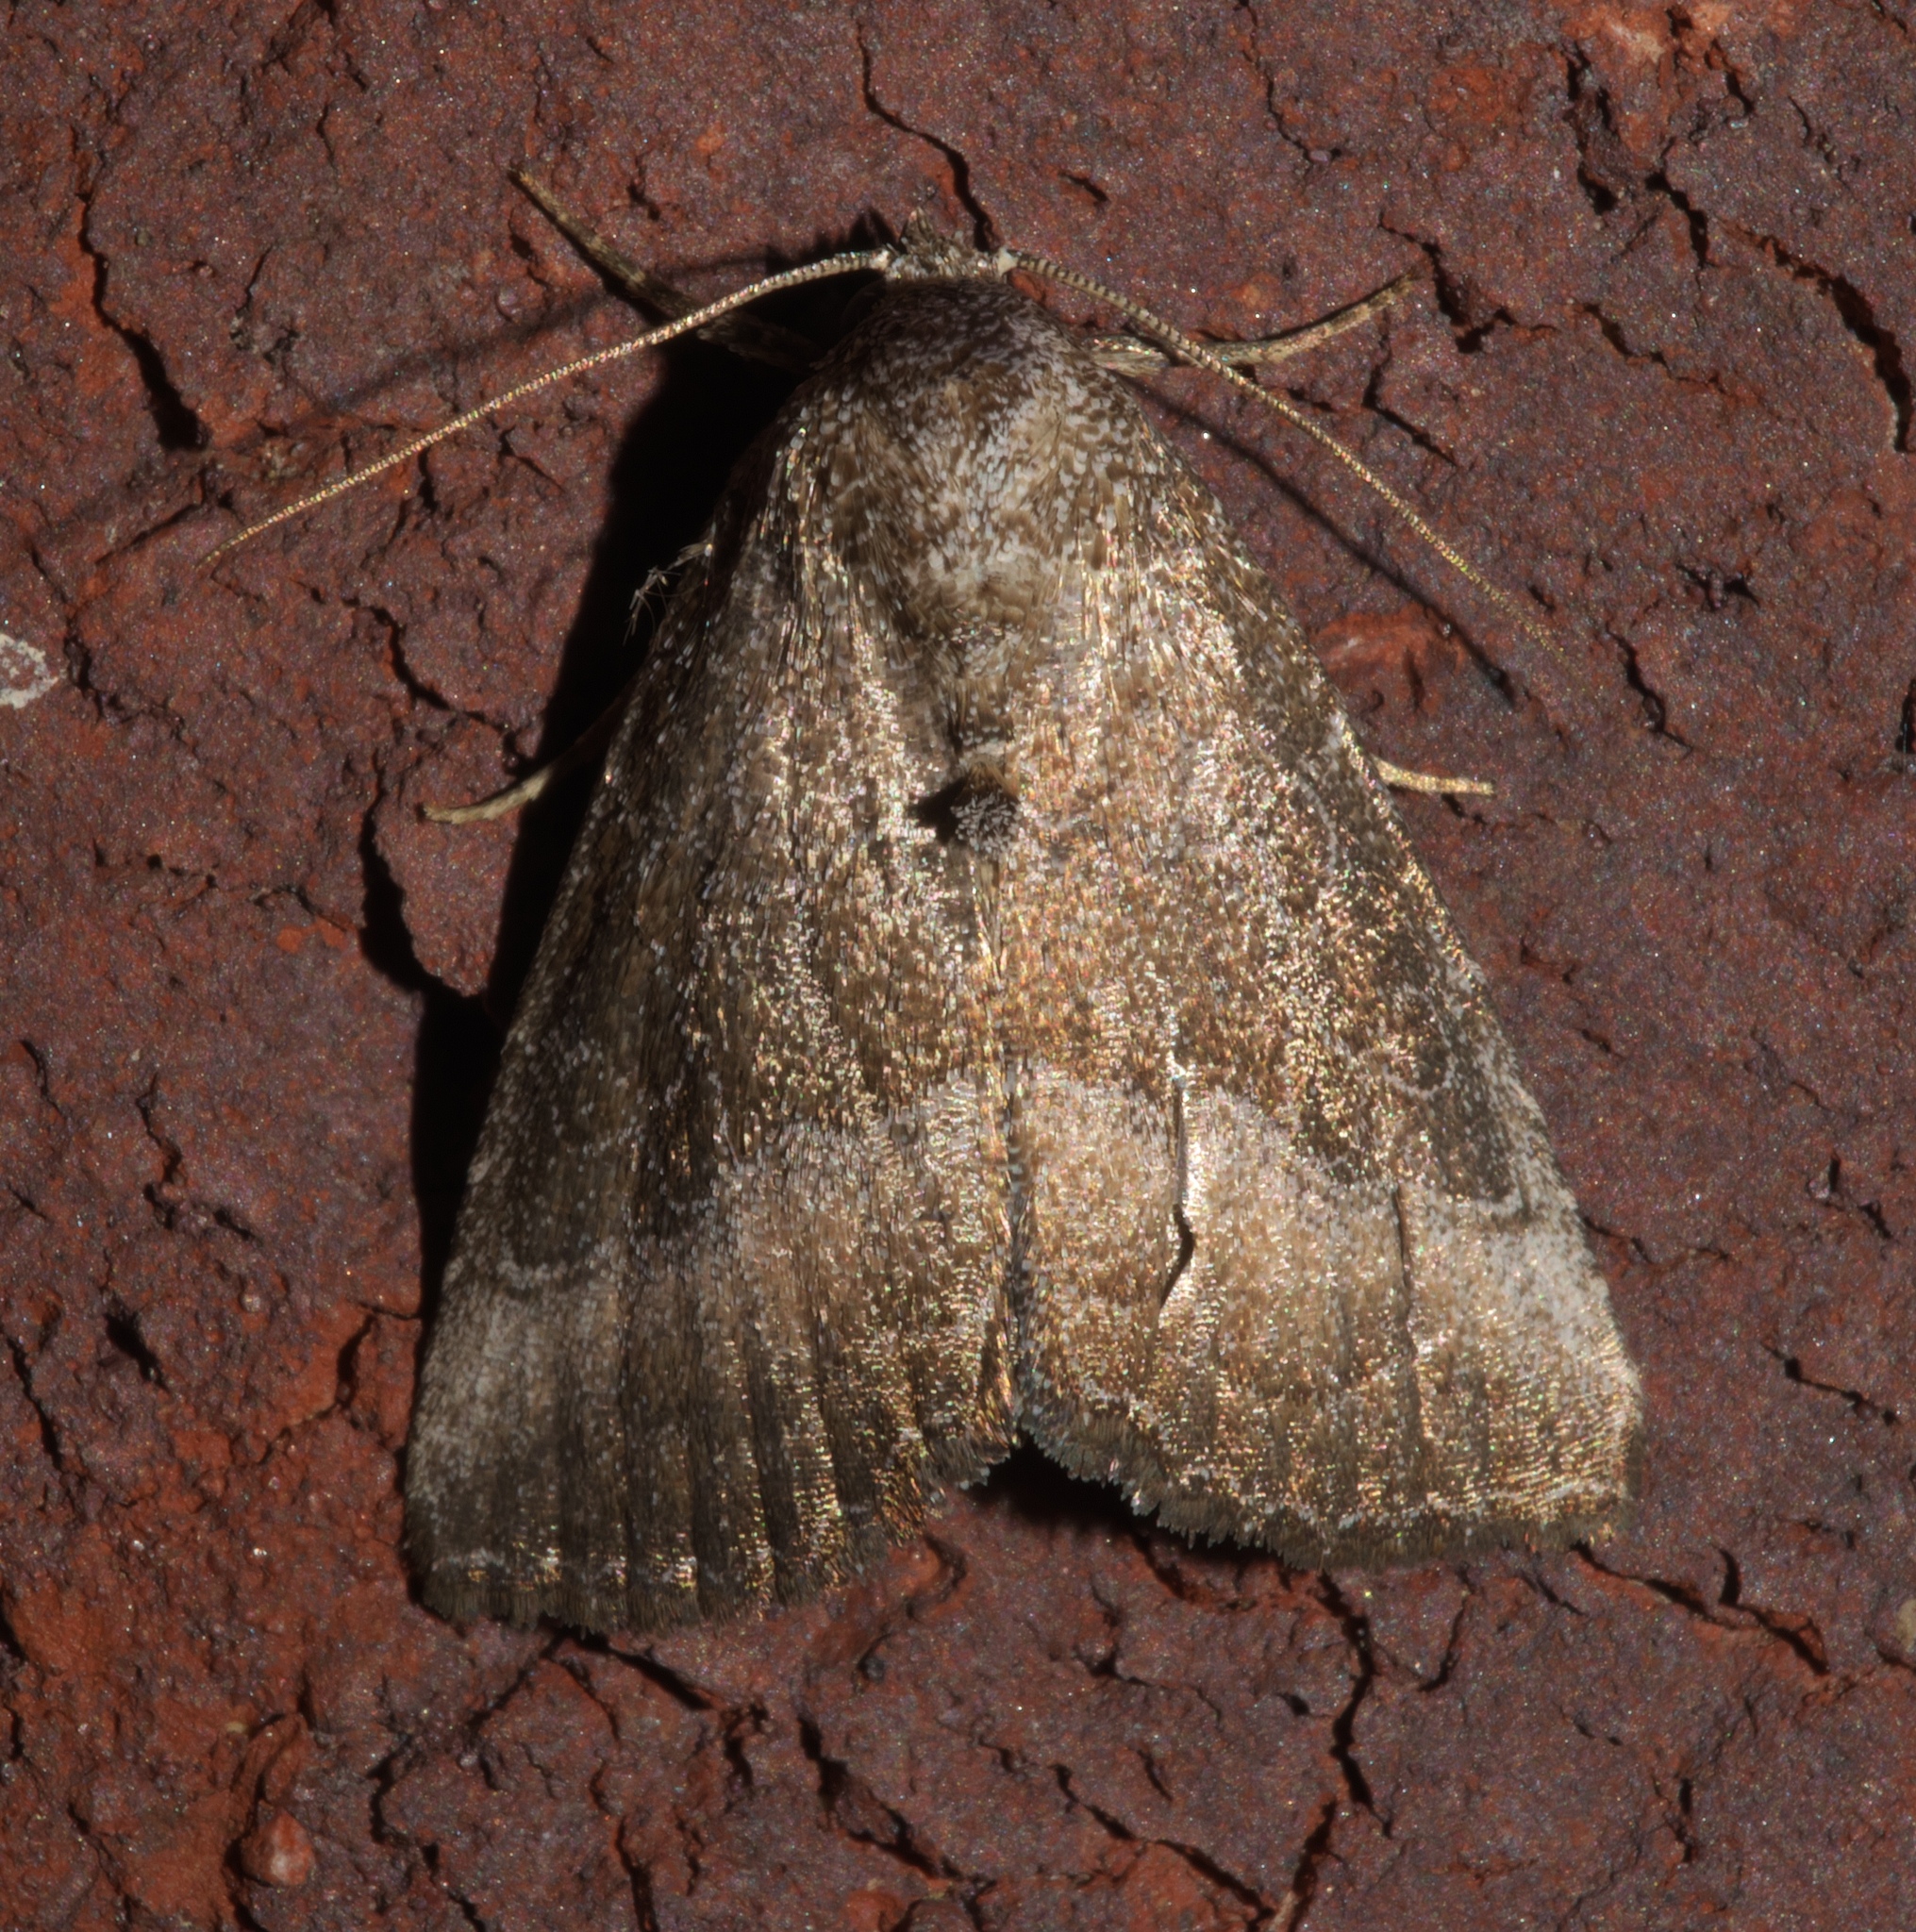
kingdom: Animalia
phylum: Arthropoda
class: Insecta
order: Lepidoptera
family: Noctuidae
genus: Ogdoconta
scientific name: Ogdoconta cinereola
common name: Common pinkband
